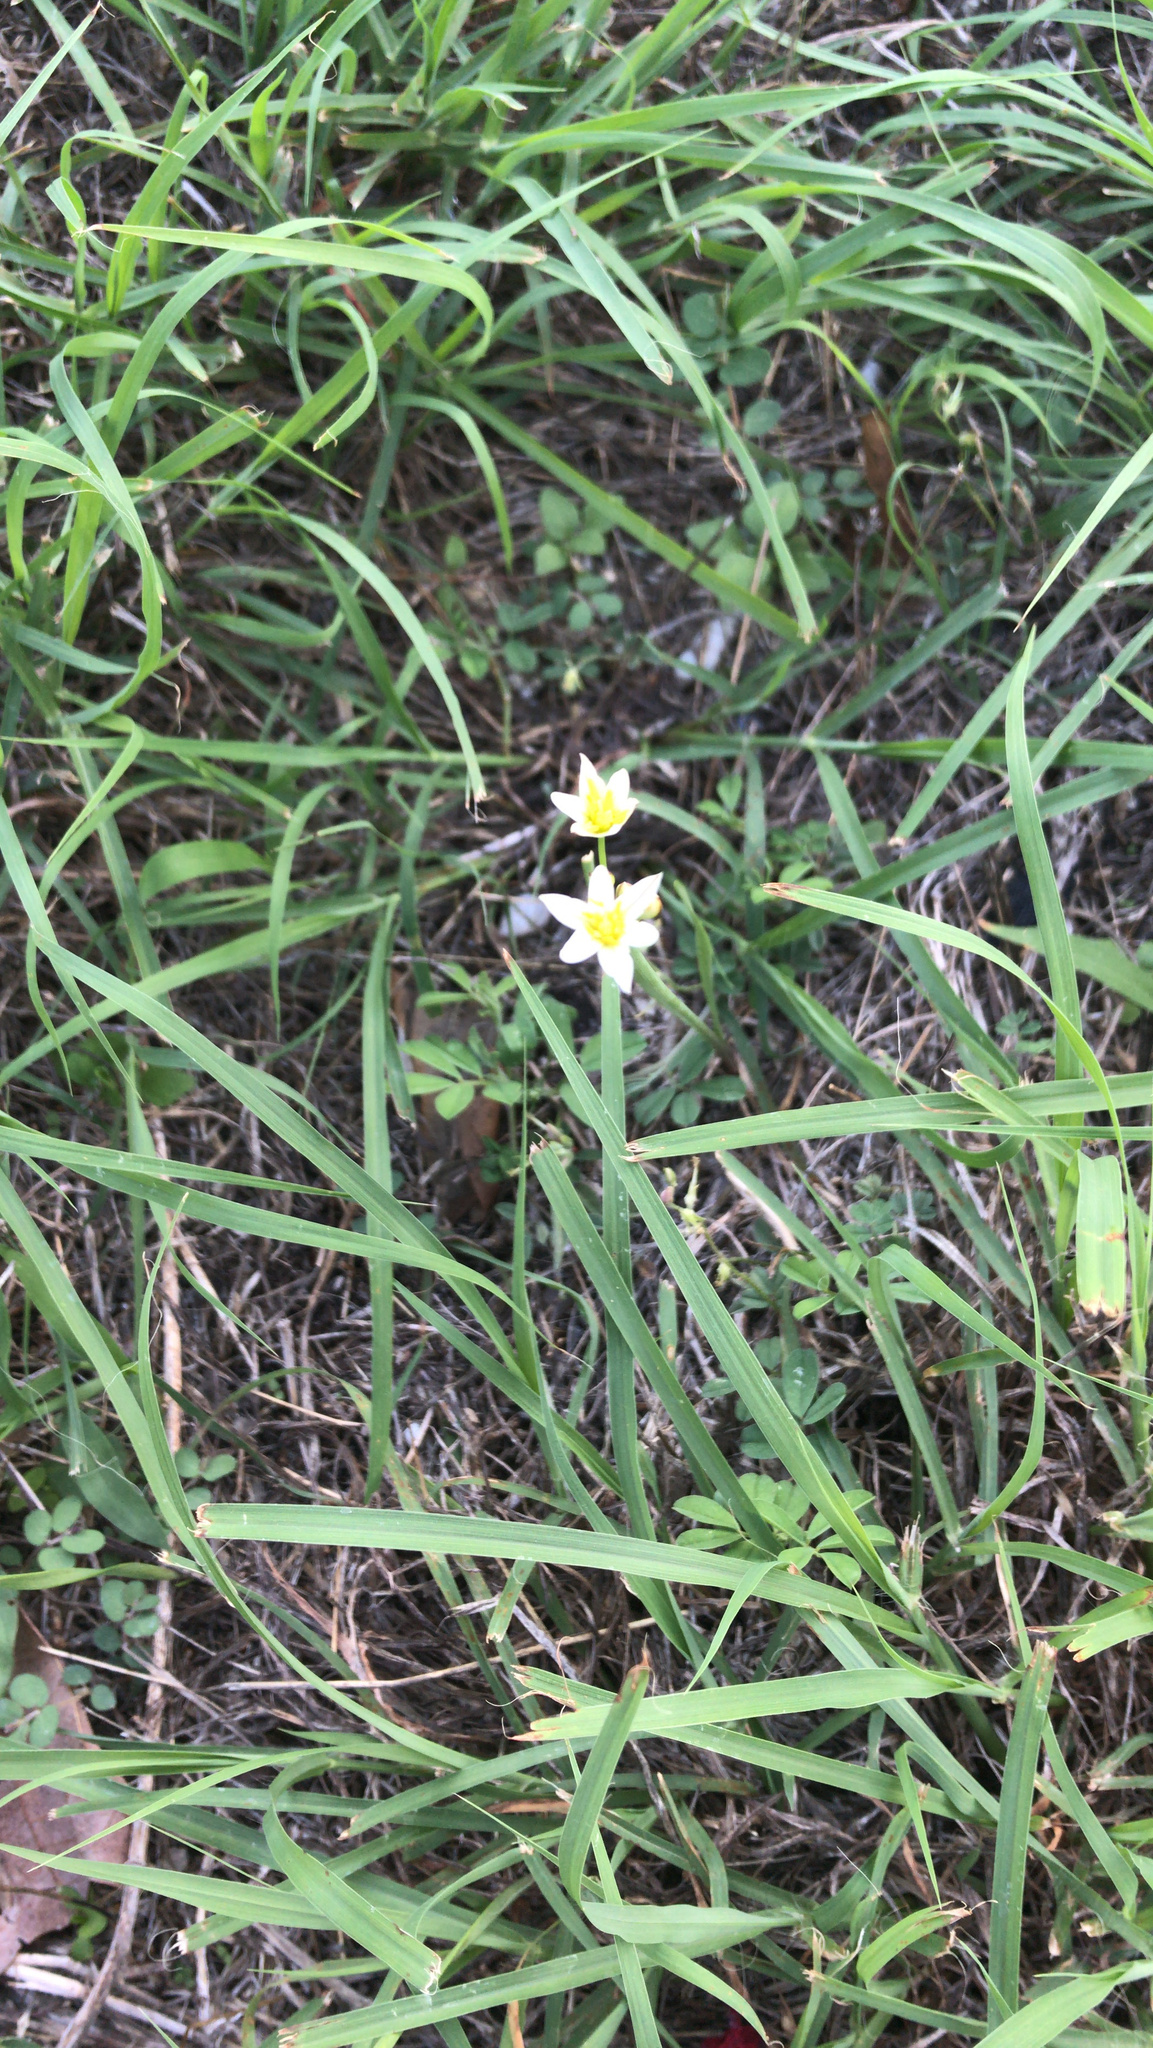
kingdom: Plantae
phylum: Tracheophyta
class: Liliopsida
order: Asparagales
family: Amaryllidaceae
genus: Nothoscordum
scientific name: Nothoscordum bivalve
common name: Crow-poison
